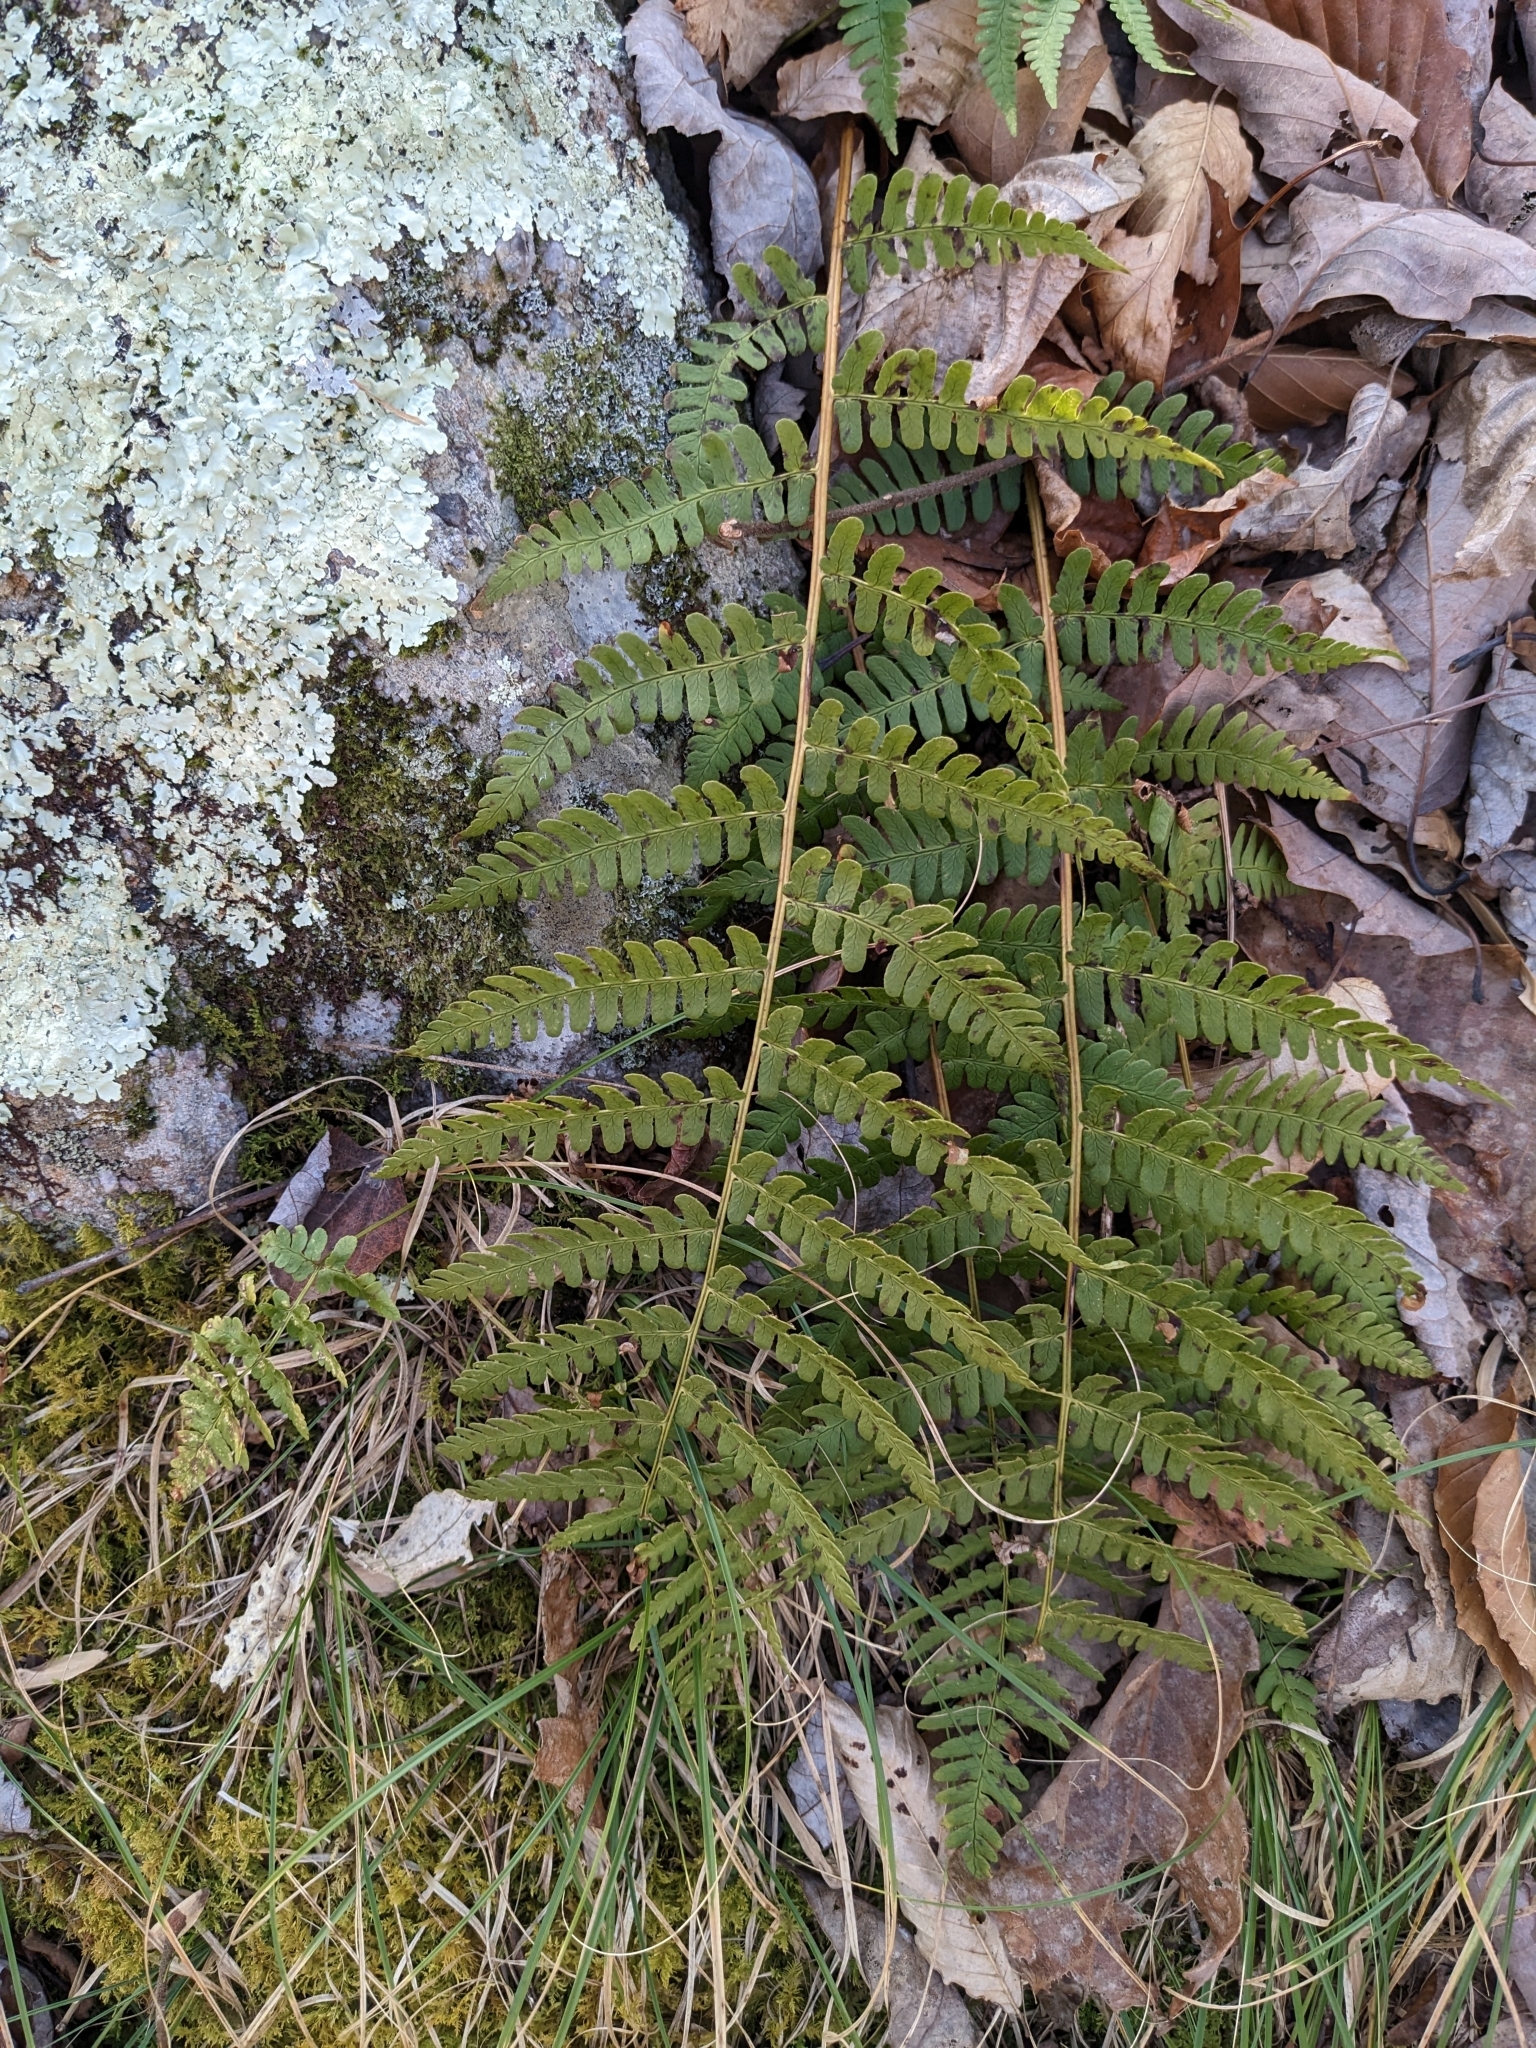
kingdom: Plantae
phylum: Tracheophyta
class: Polypodiopsida
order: Polypodiales
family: Dryopteridaceae
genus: Dryopteris
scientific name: Dryopteris marginalis
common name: Marginal wood fern
